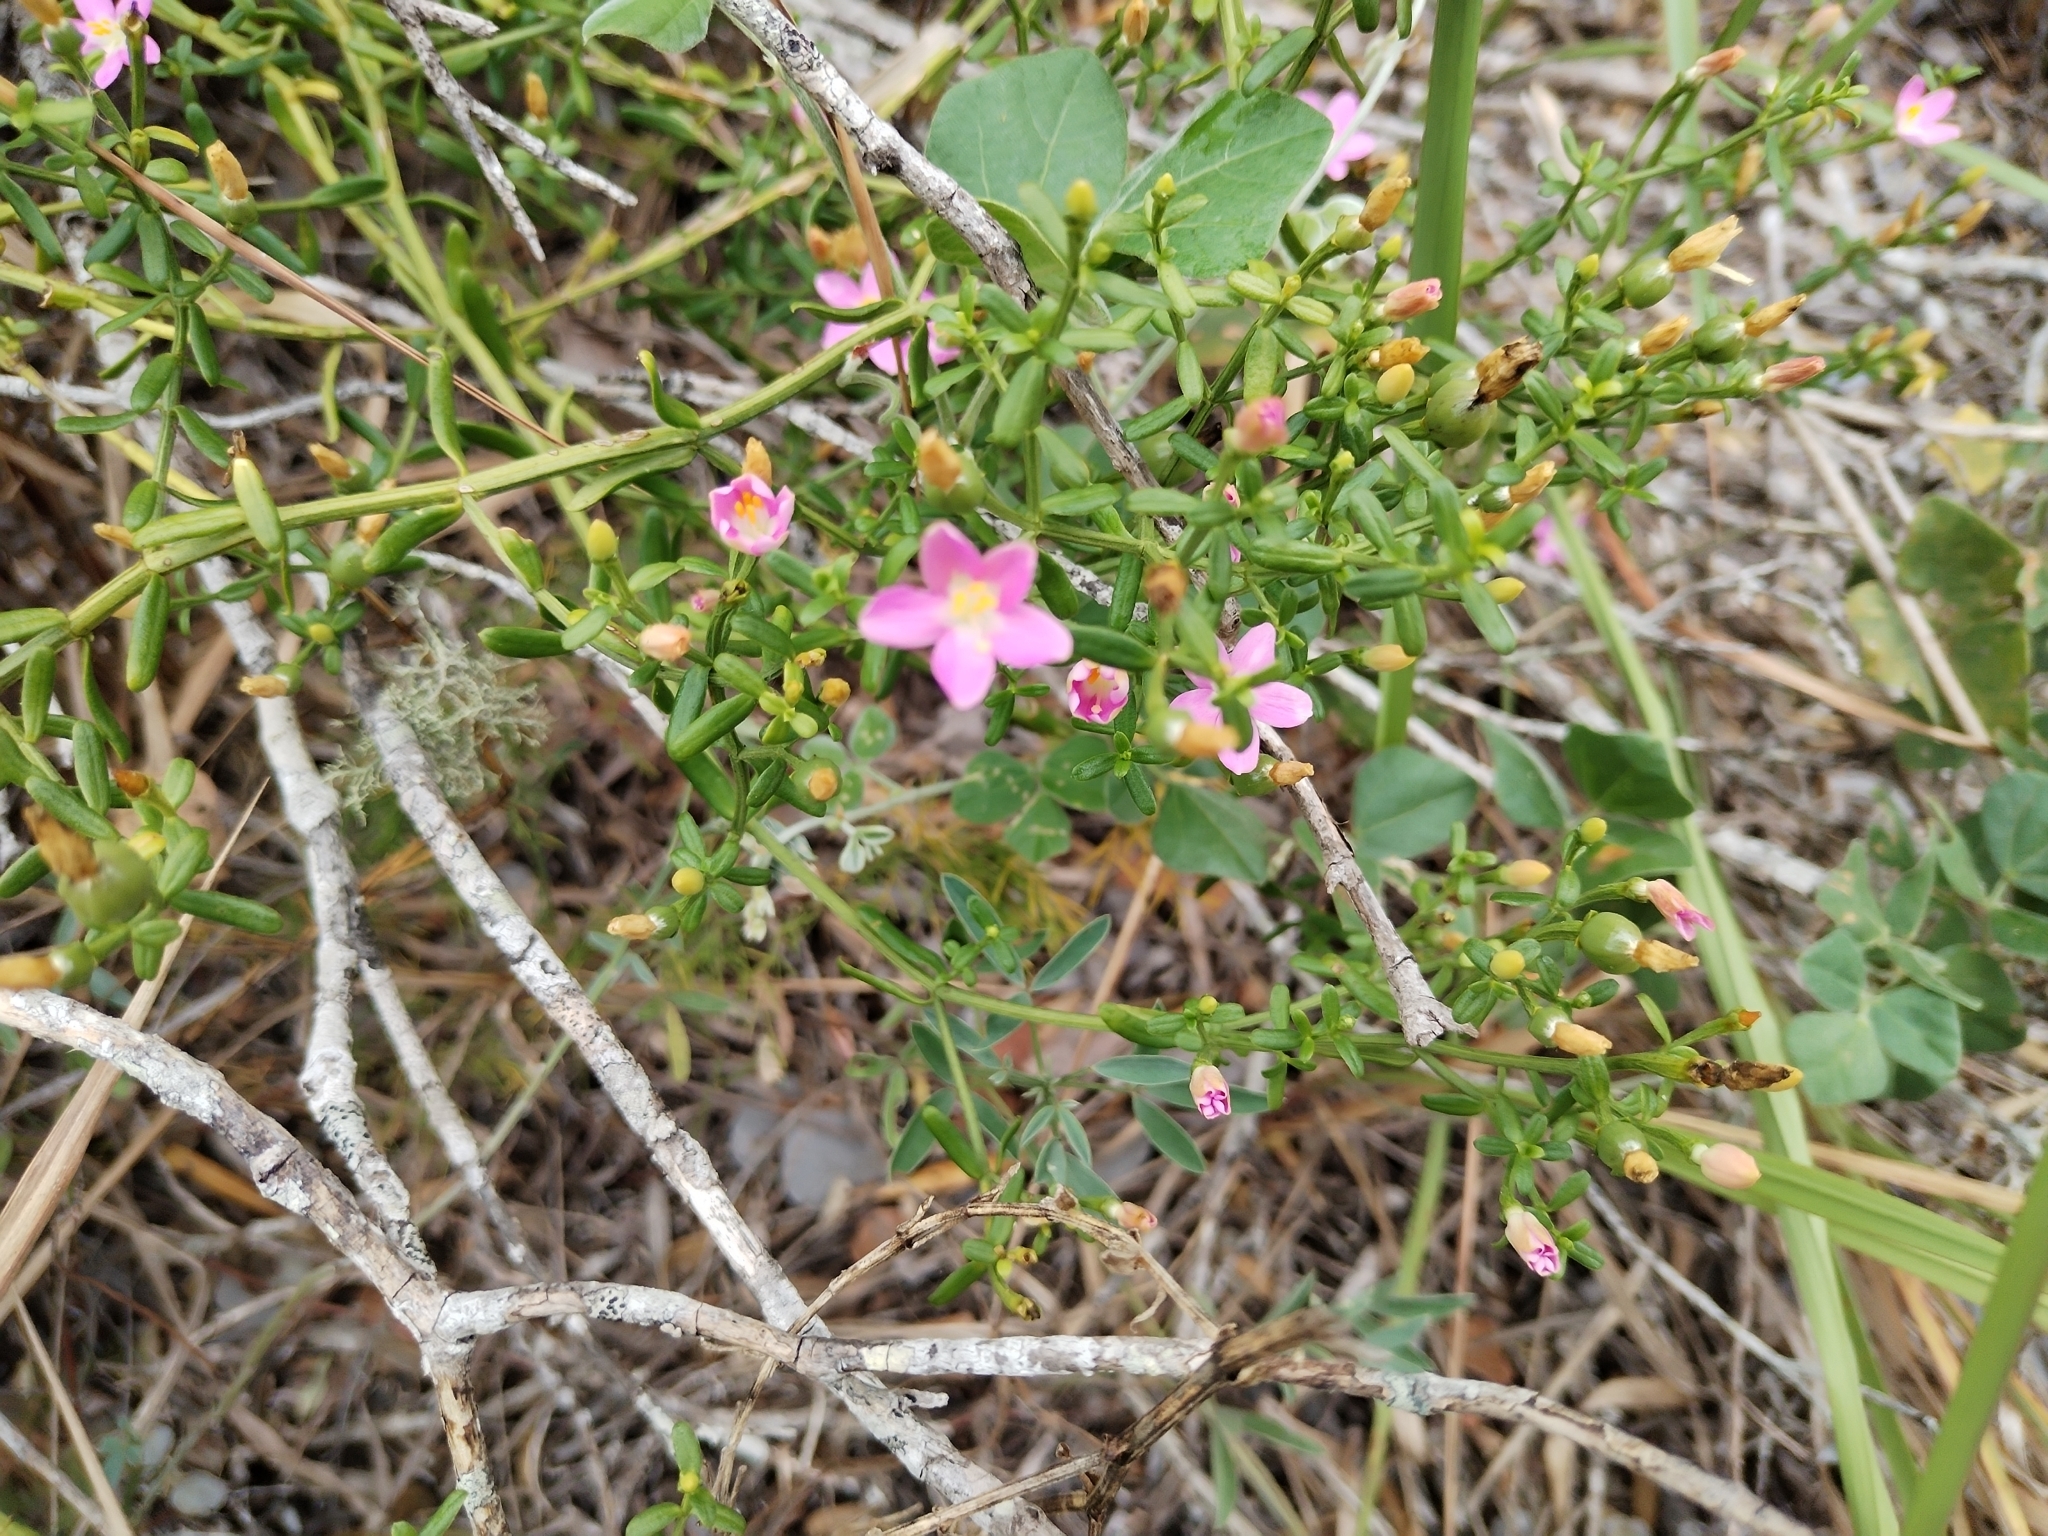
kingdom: Plantae
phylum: Tracheophyta
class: Magnoliopsida
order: Gentianales
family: Gentianaceae
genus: Chironia
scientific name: Chironia baccifera
